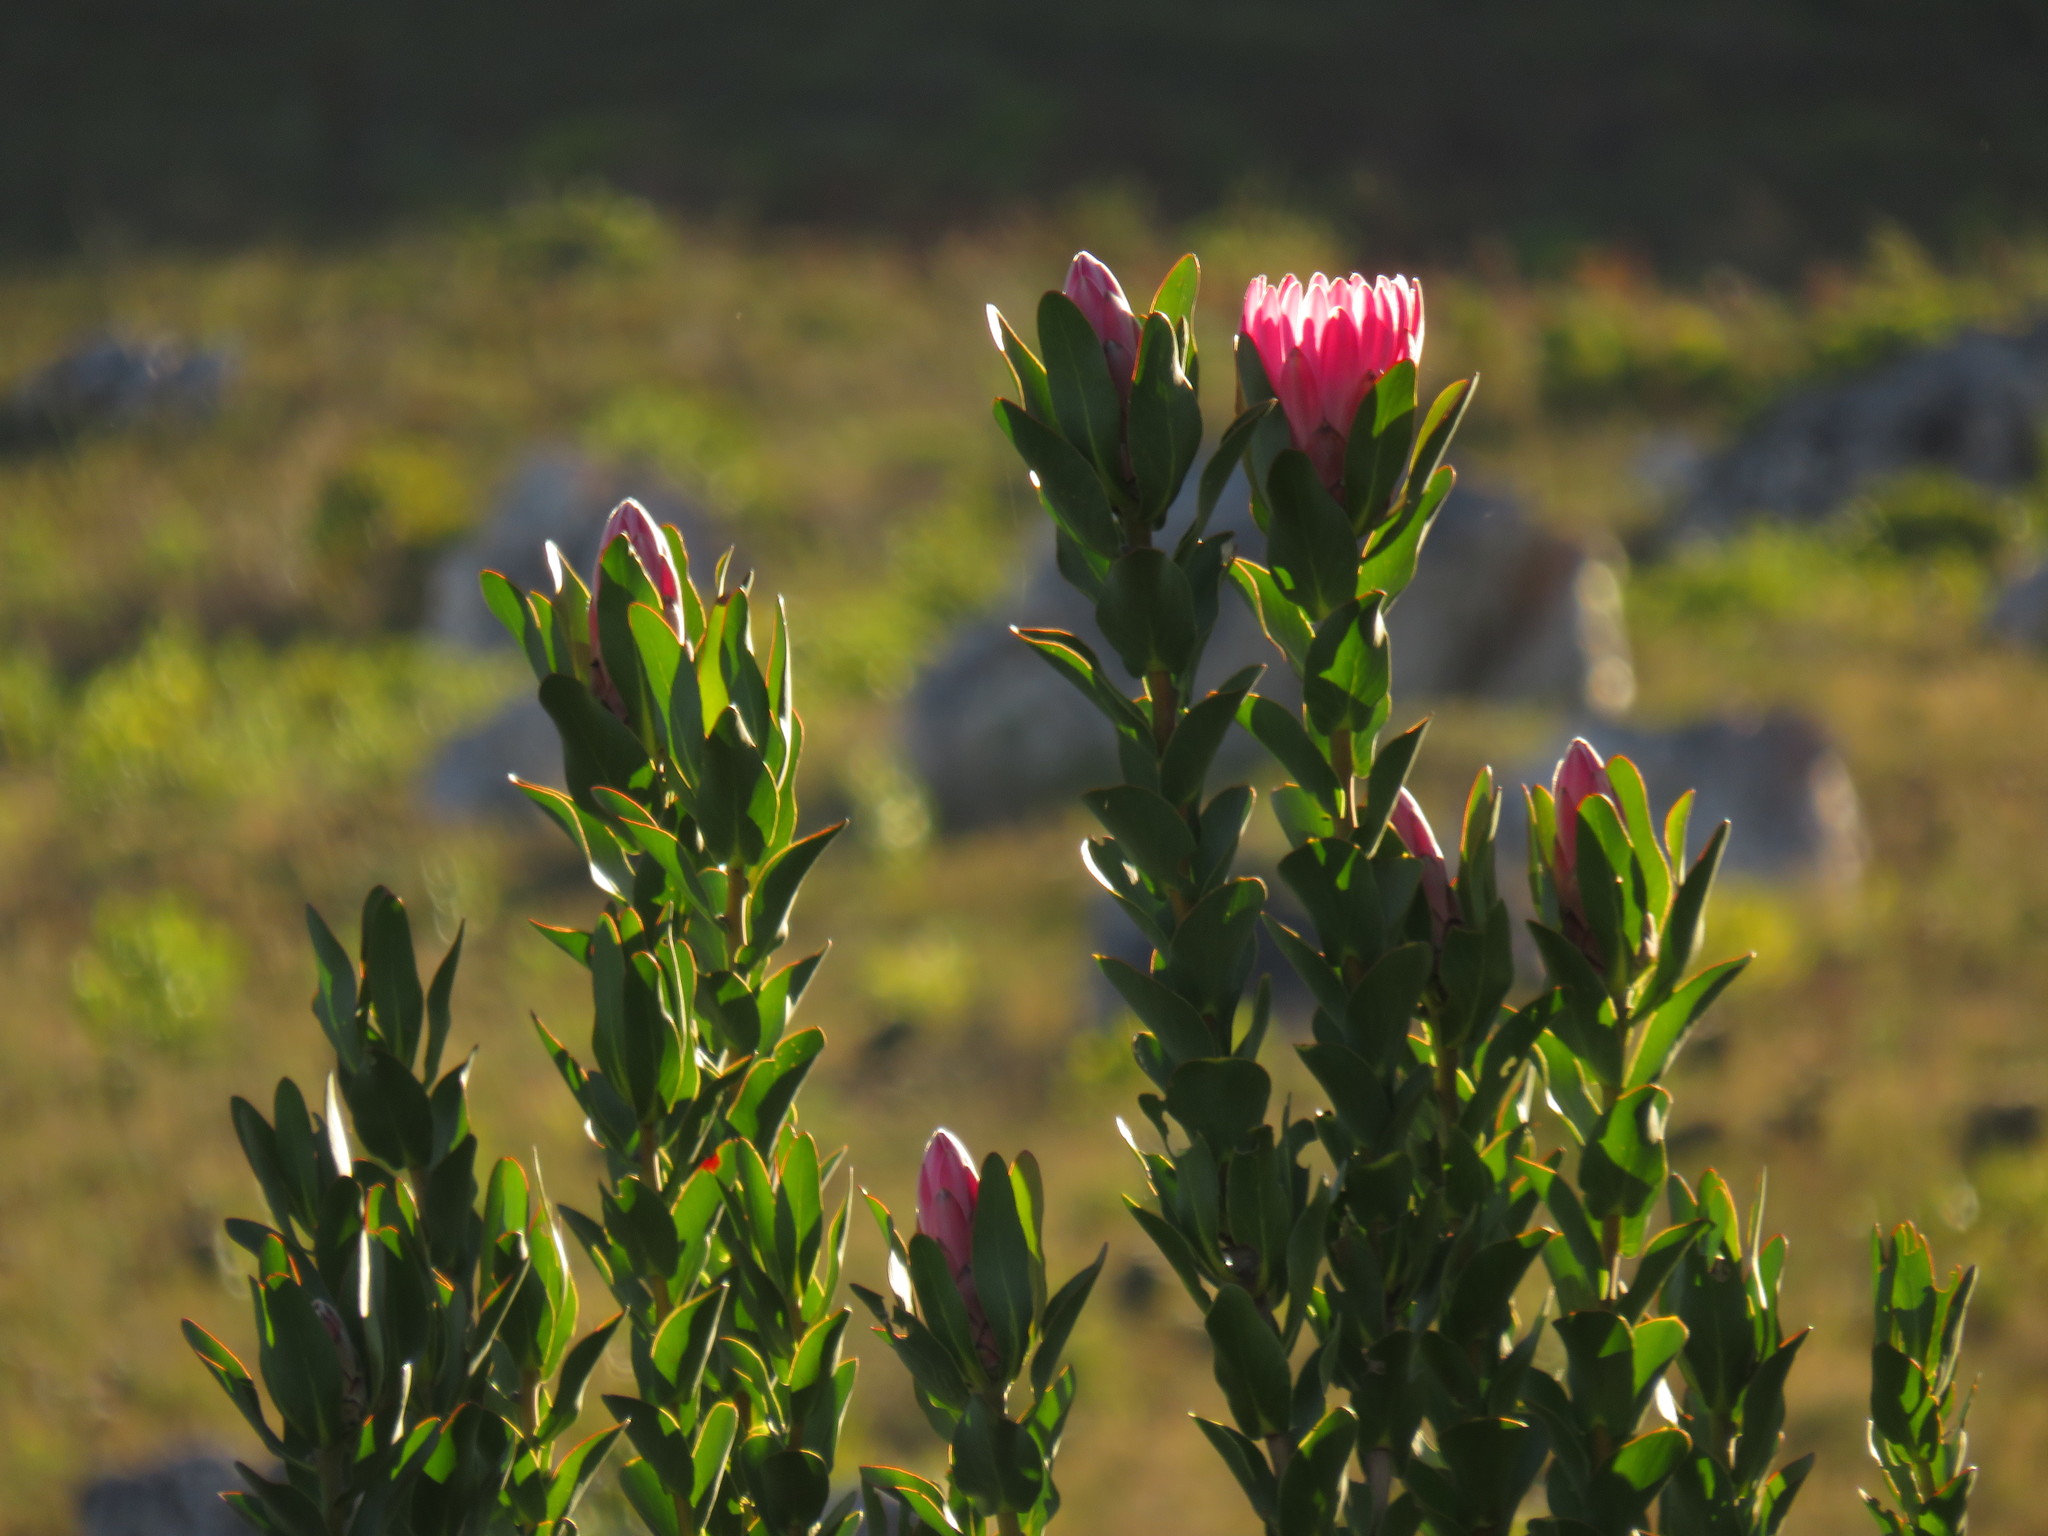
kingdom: Plantae
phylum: Tracheophyta
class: Magnoliopsida
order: Proteales
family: Proteaceae
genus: Protea
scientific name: Protea compacta
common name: Bot river protea
